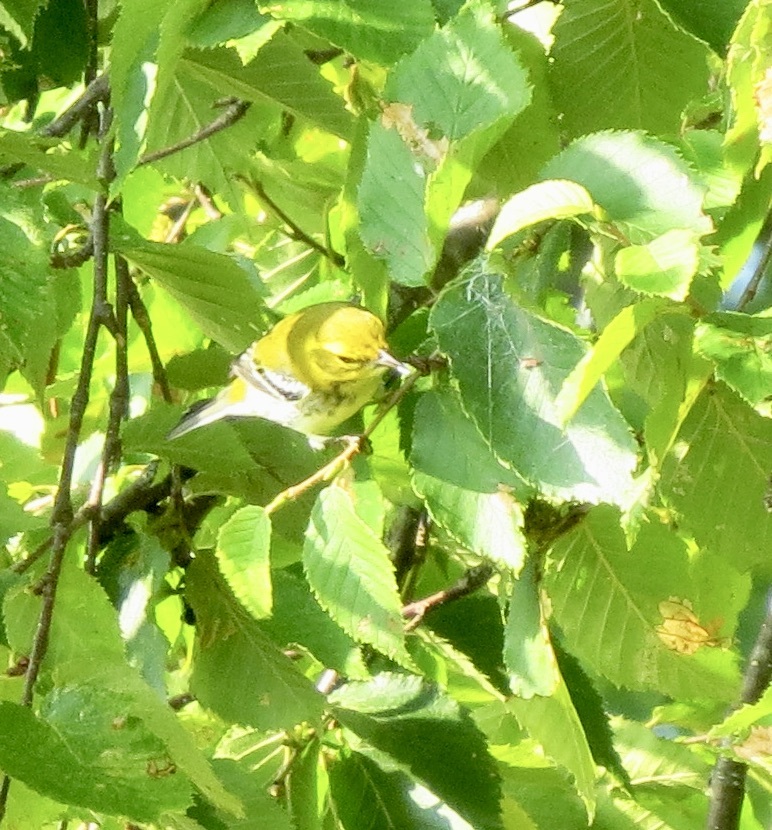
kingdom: Animalia
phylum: Chordata
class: Aves
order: Passeriformes
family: Parulidae
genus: Setophaga
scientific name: Setophaga virens
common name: Black-throated green warbler
